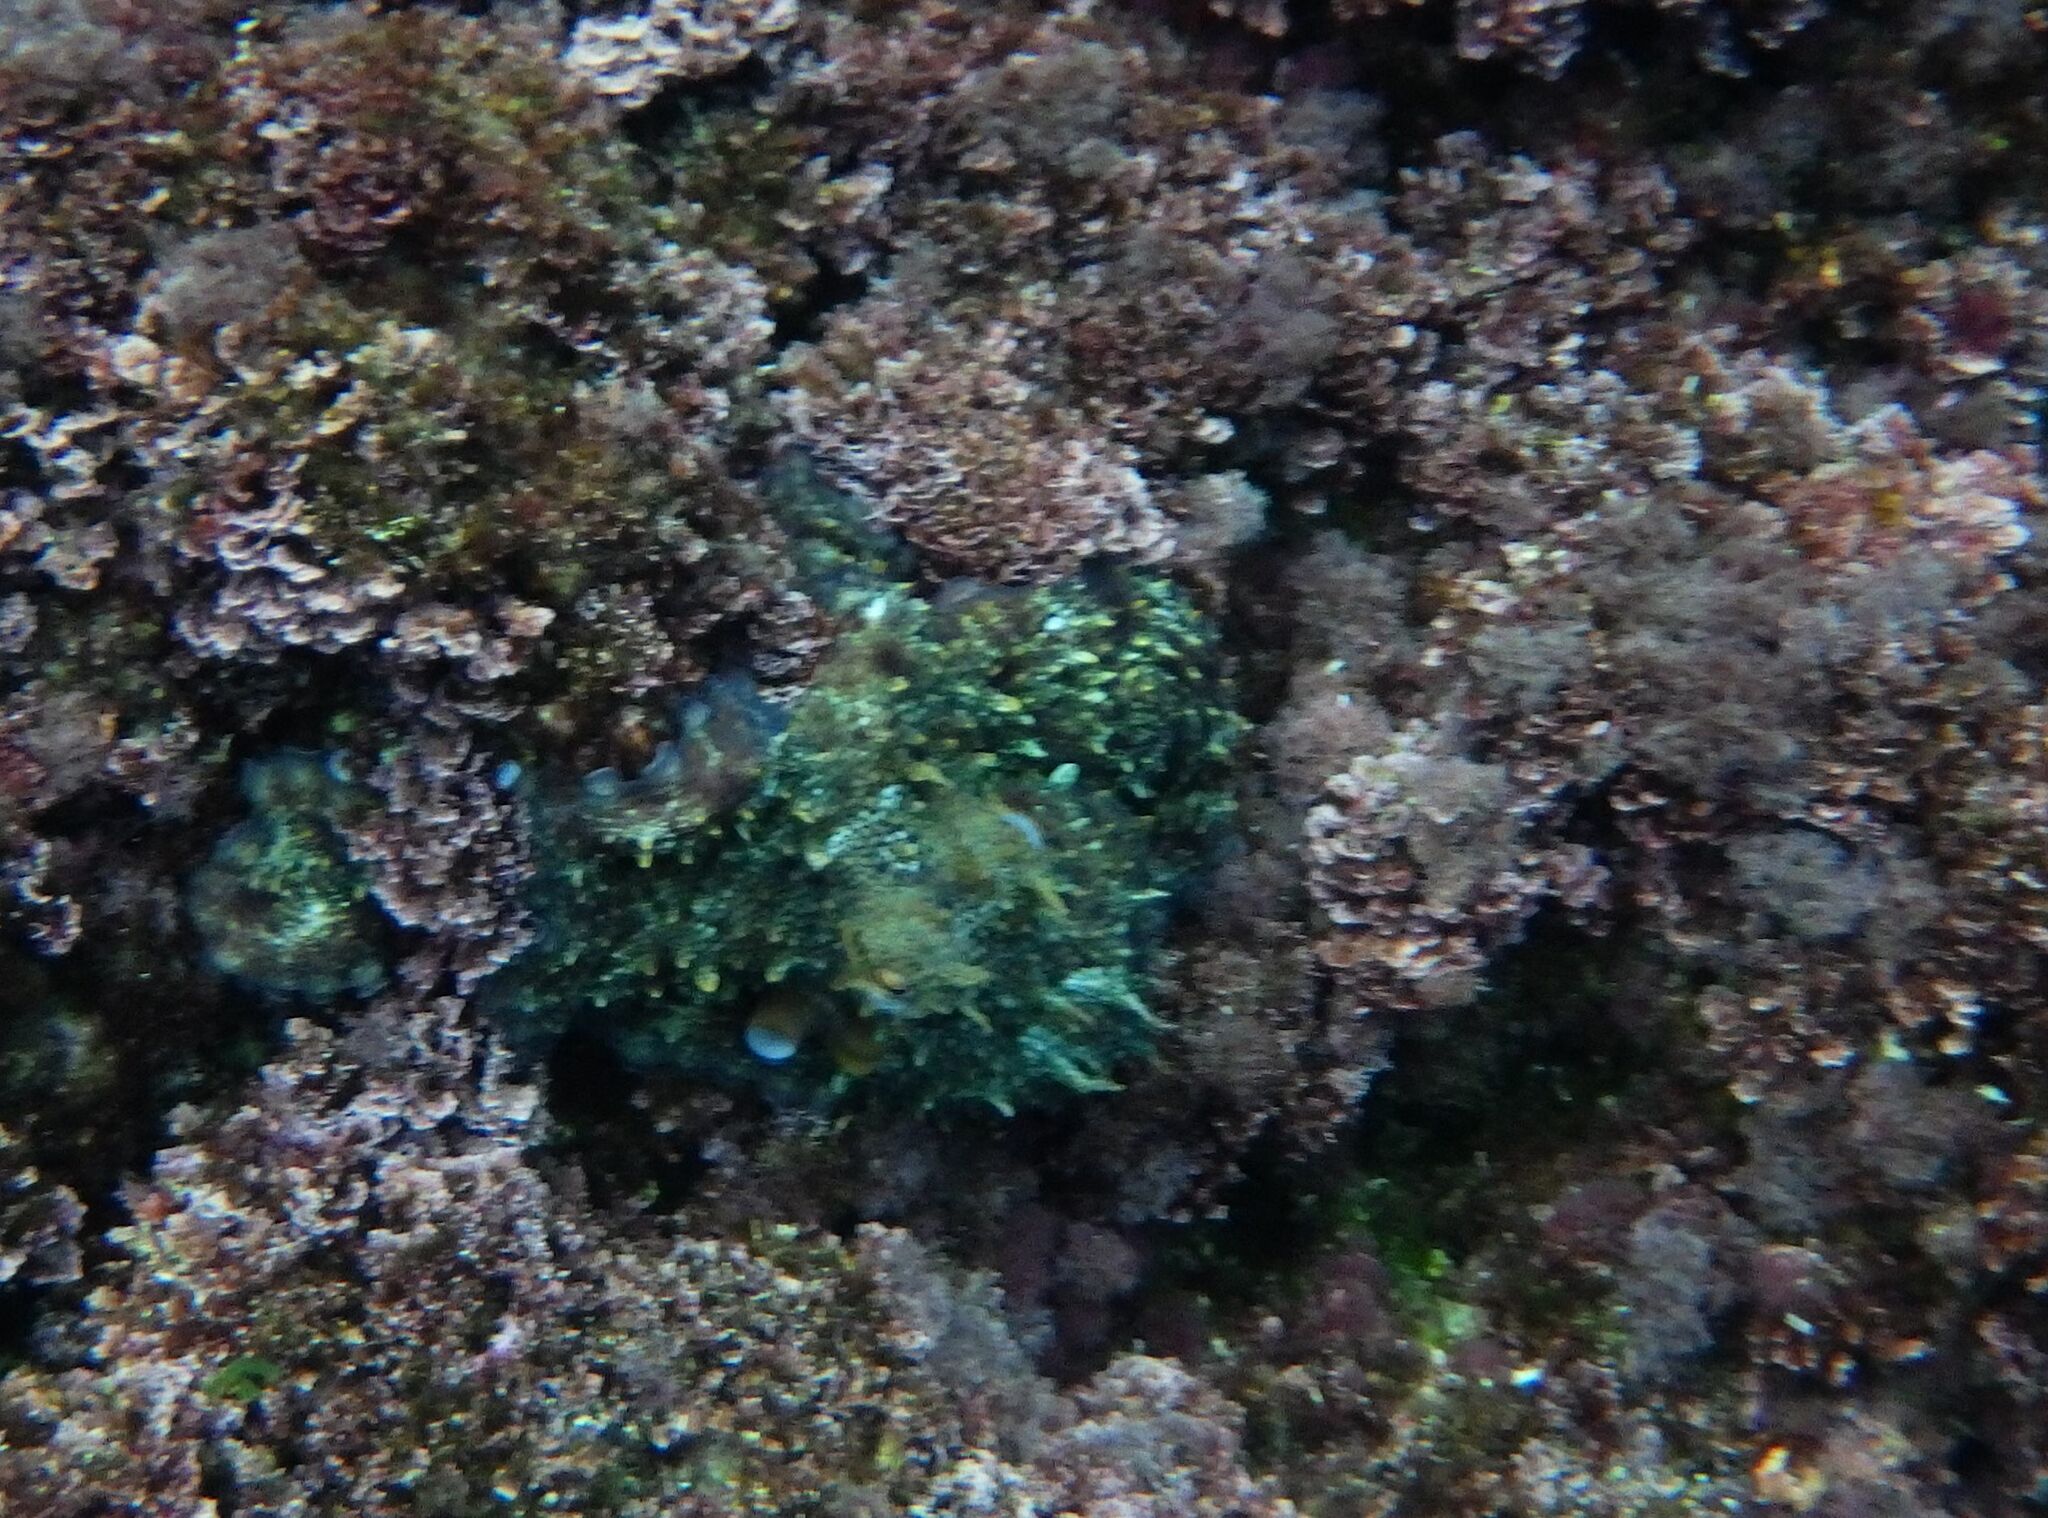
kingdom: Animalia
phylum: Mollusca
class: Cephalopoda
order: Octopoda
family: Octopodidae
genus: Octopus
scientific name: Octopus vulgaris
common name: Common octopus
